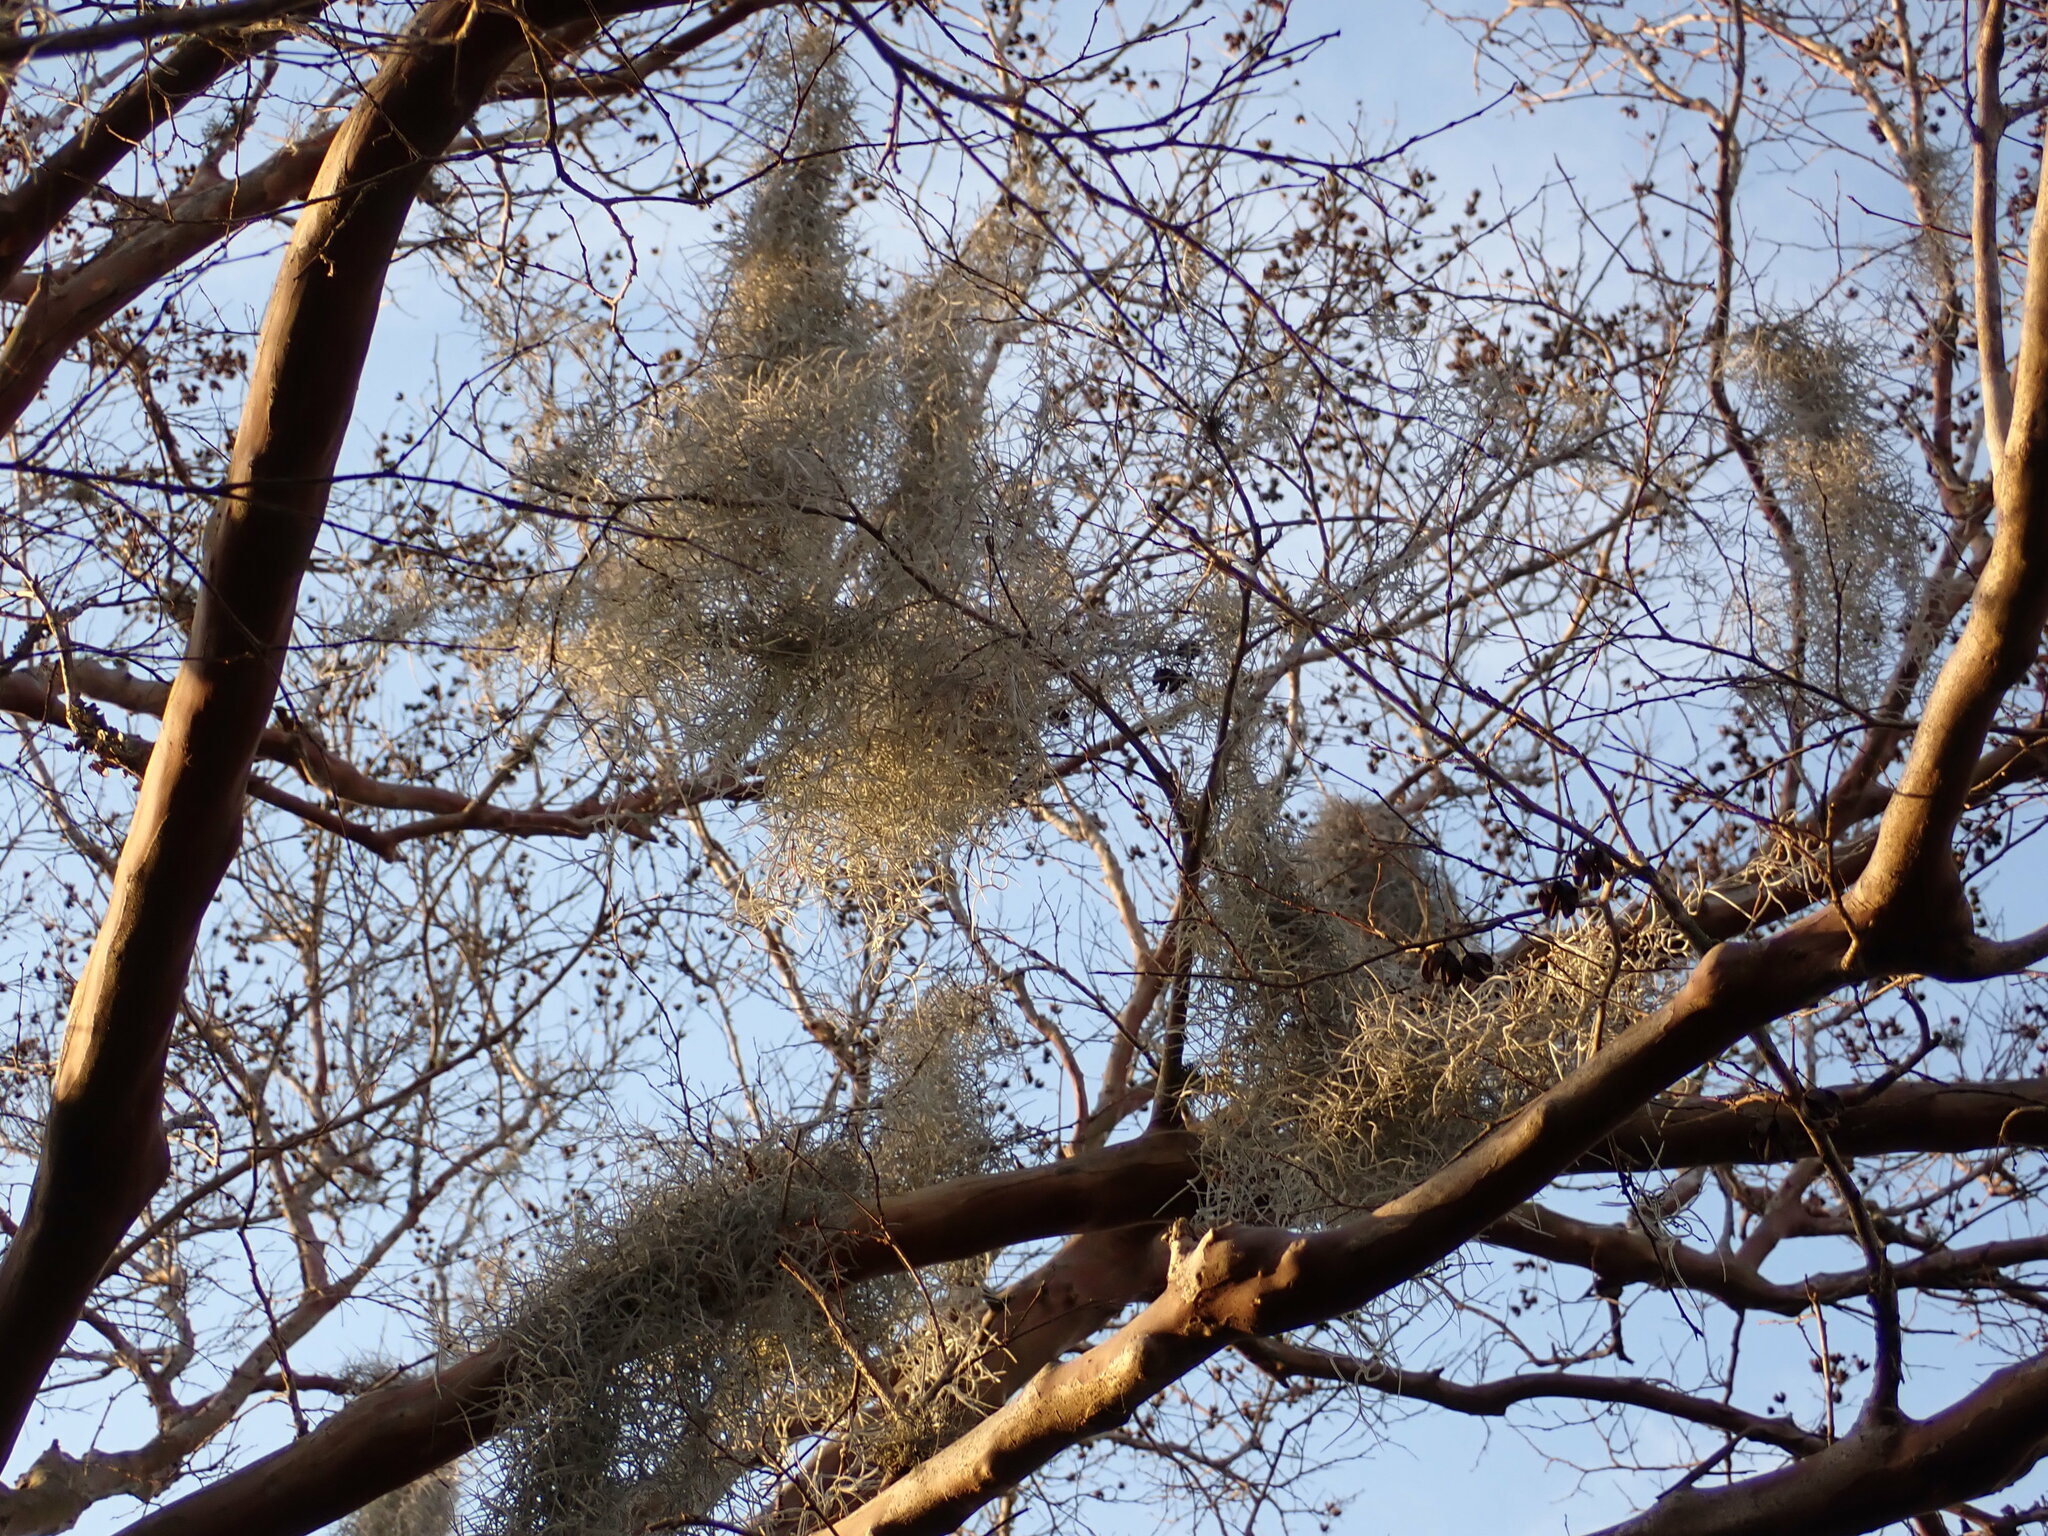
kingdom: Plantae
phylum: Tracheophyta
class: Liliopsida
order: Poales
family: Bromeliaceae
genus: Tillandsia
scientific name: Tillandsia usneoides
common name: Spanish moss
